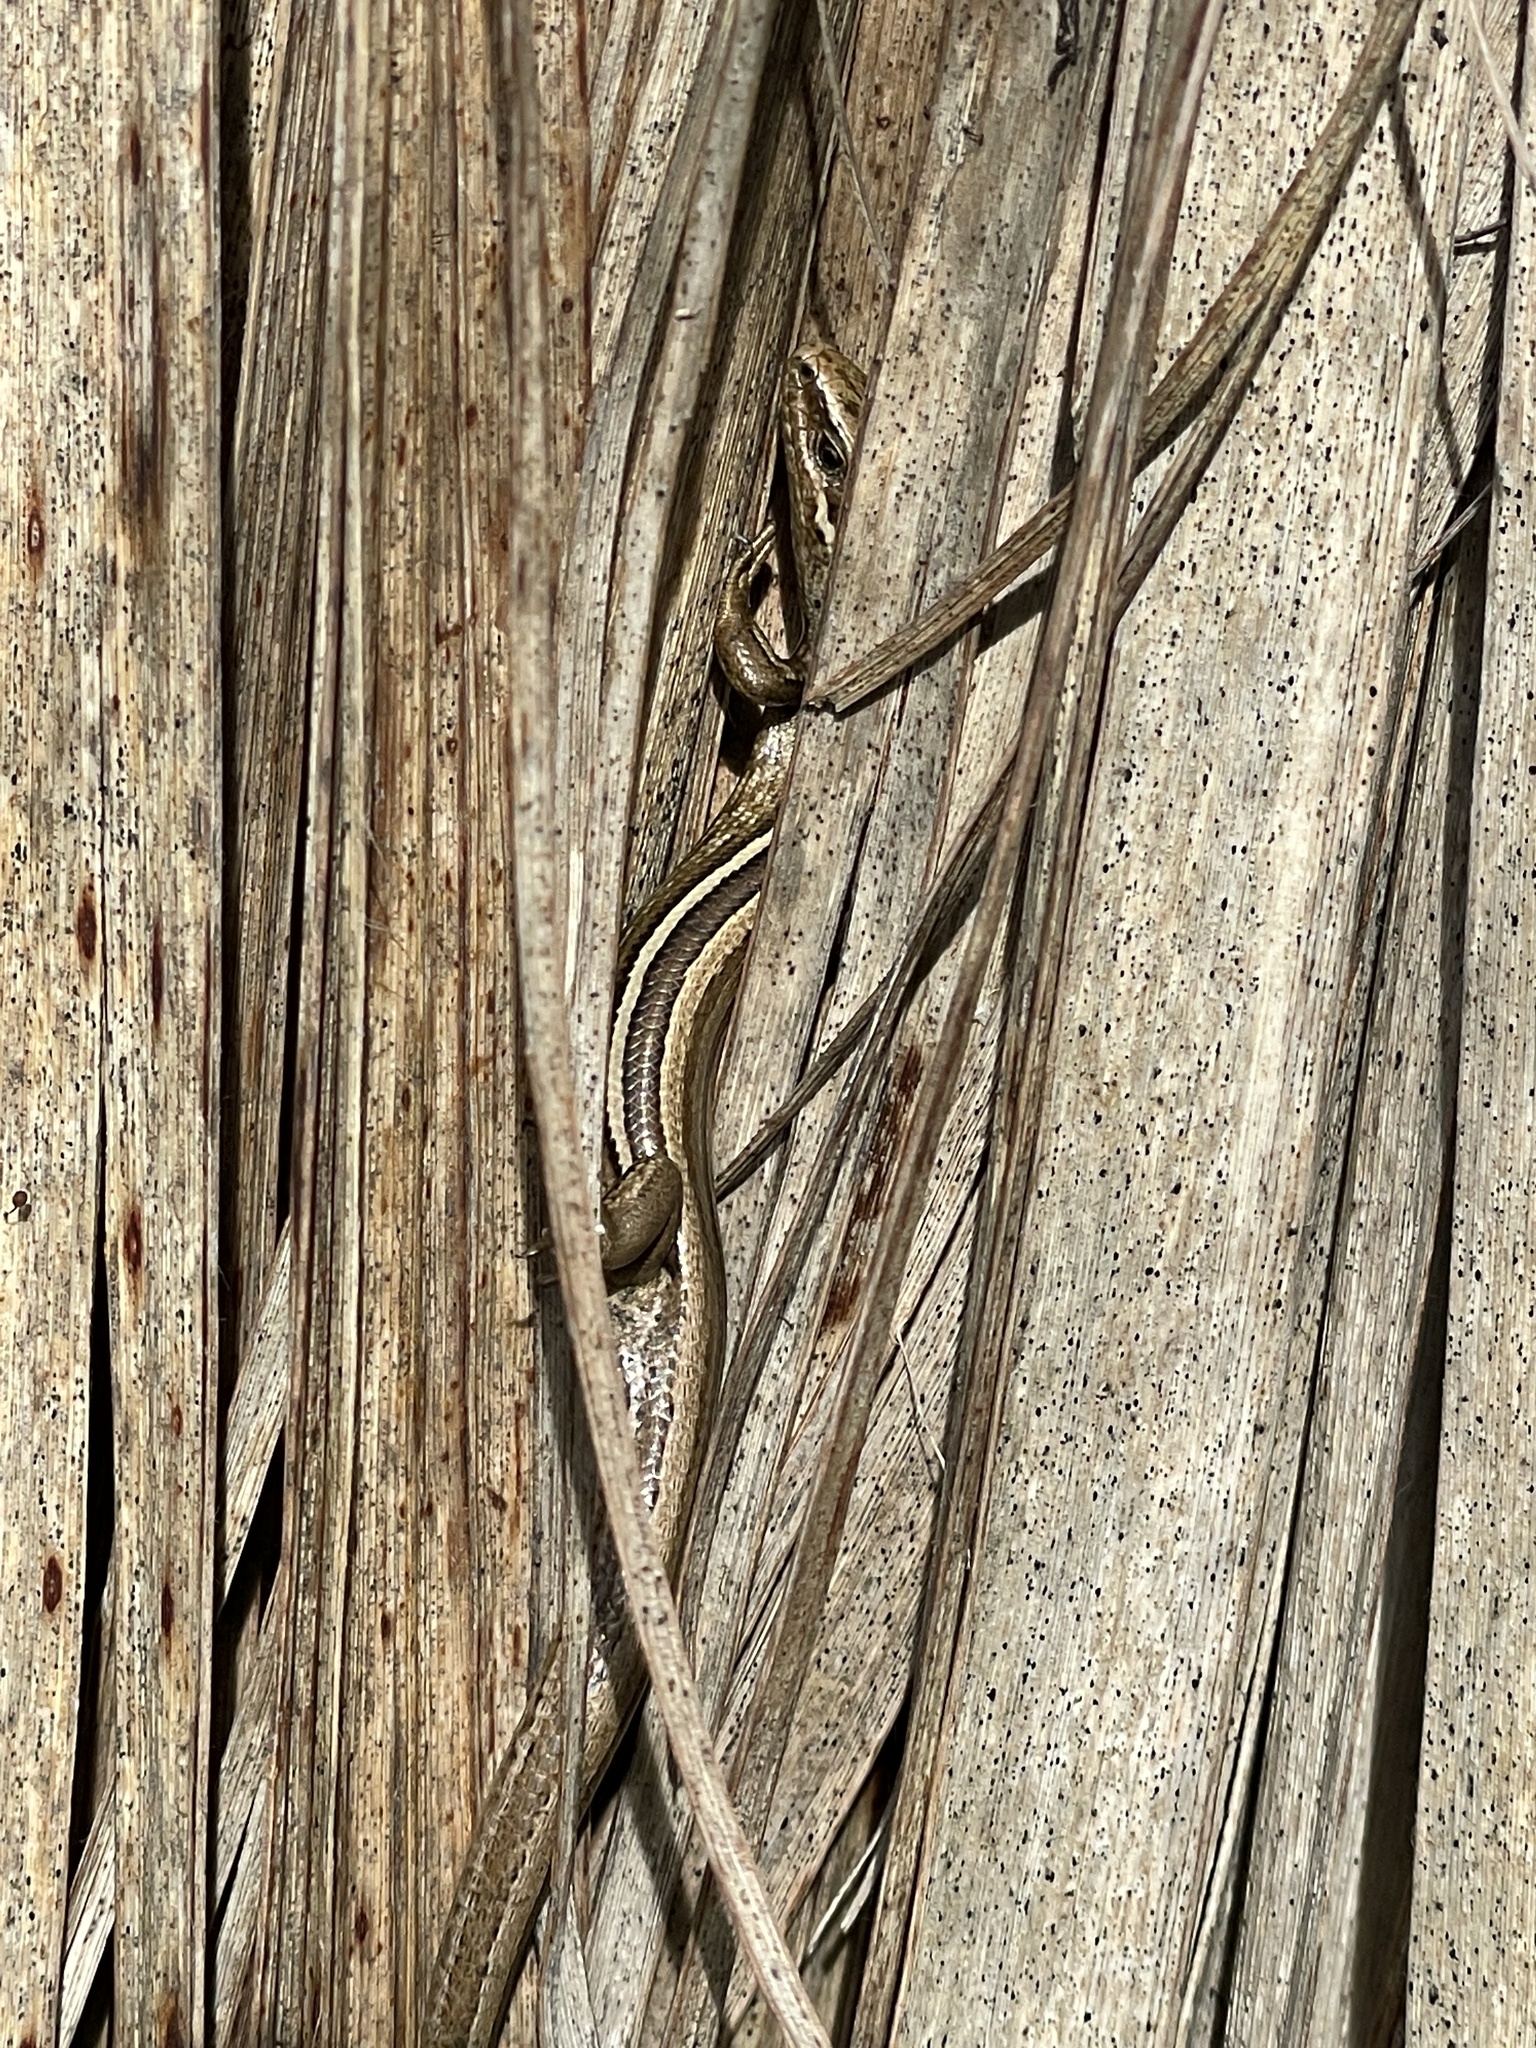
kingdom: Animalia
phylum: Chordata
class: Squamata
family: Scincidae
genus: Oligosoma
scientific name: Oligosoma polychroma
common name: Common new zealand skink
